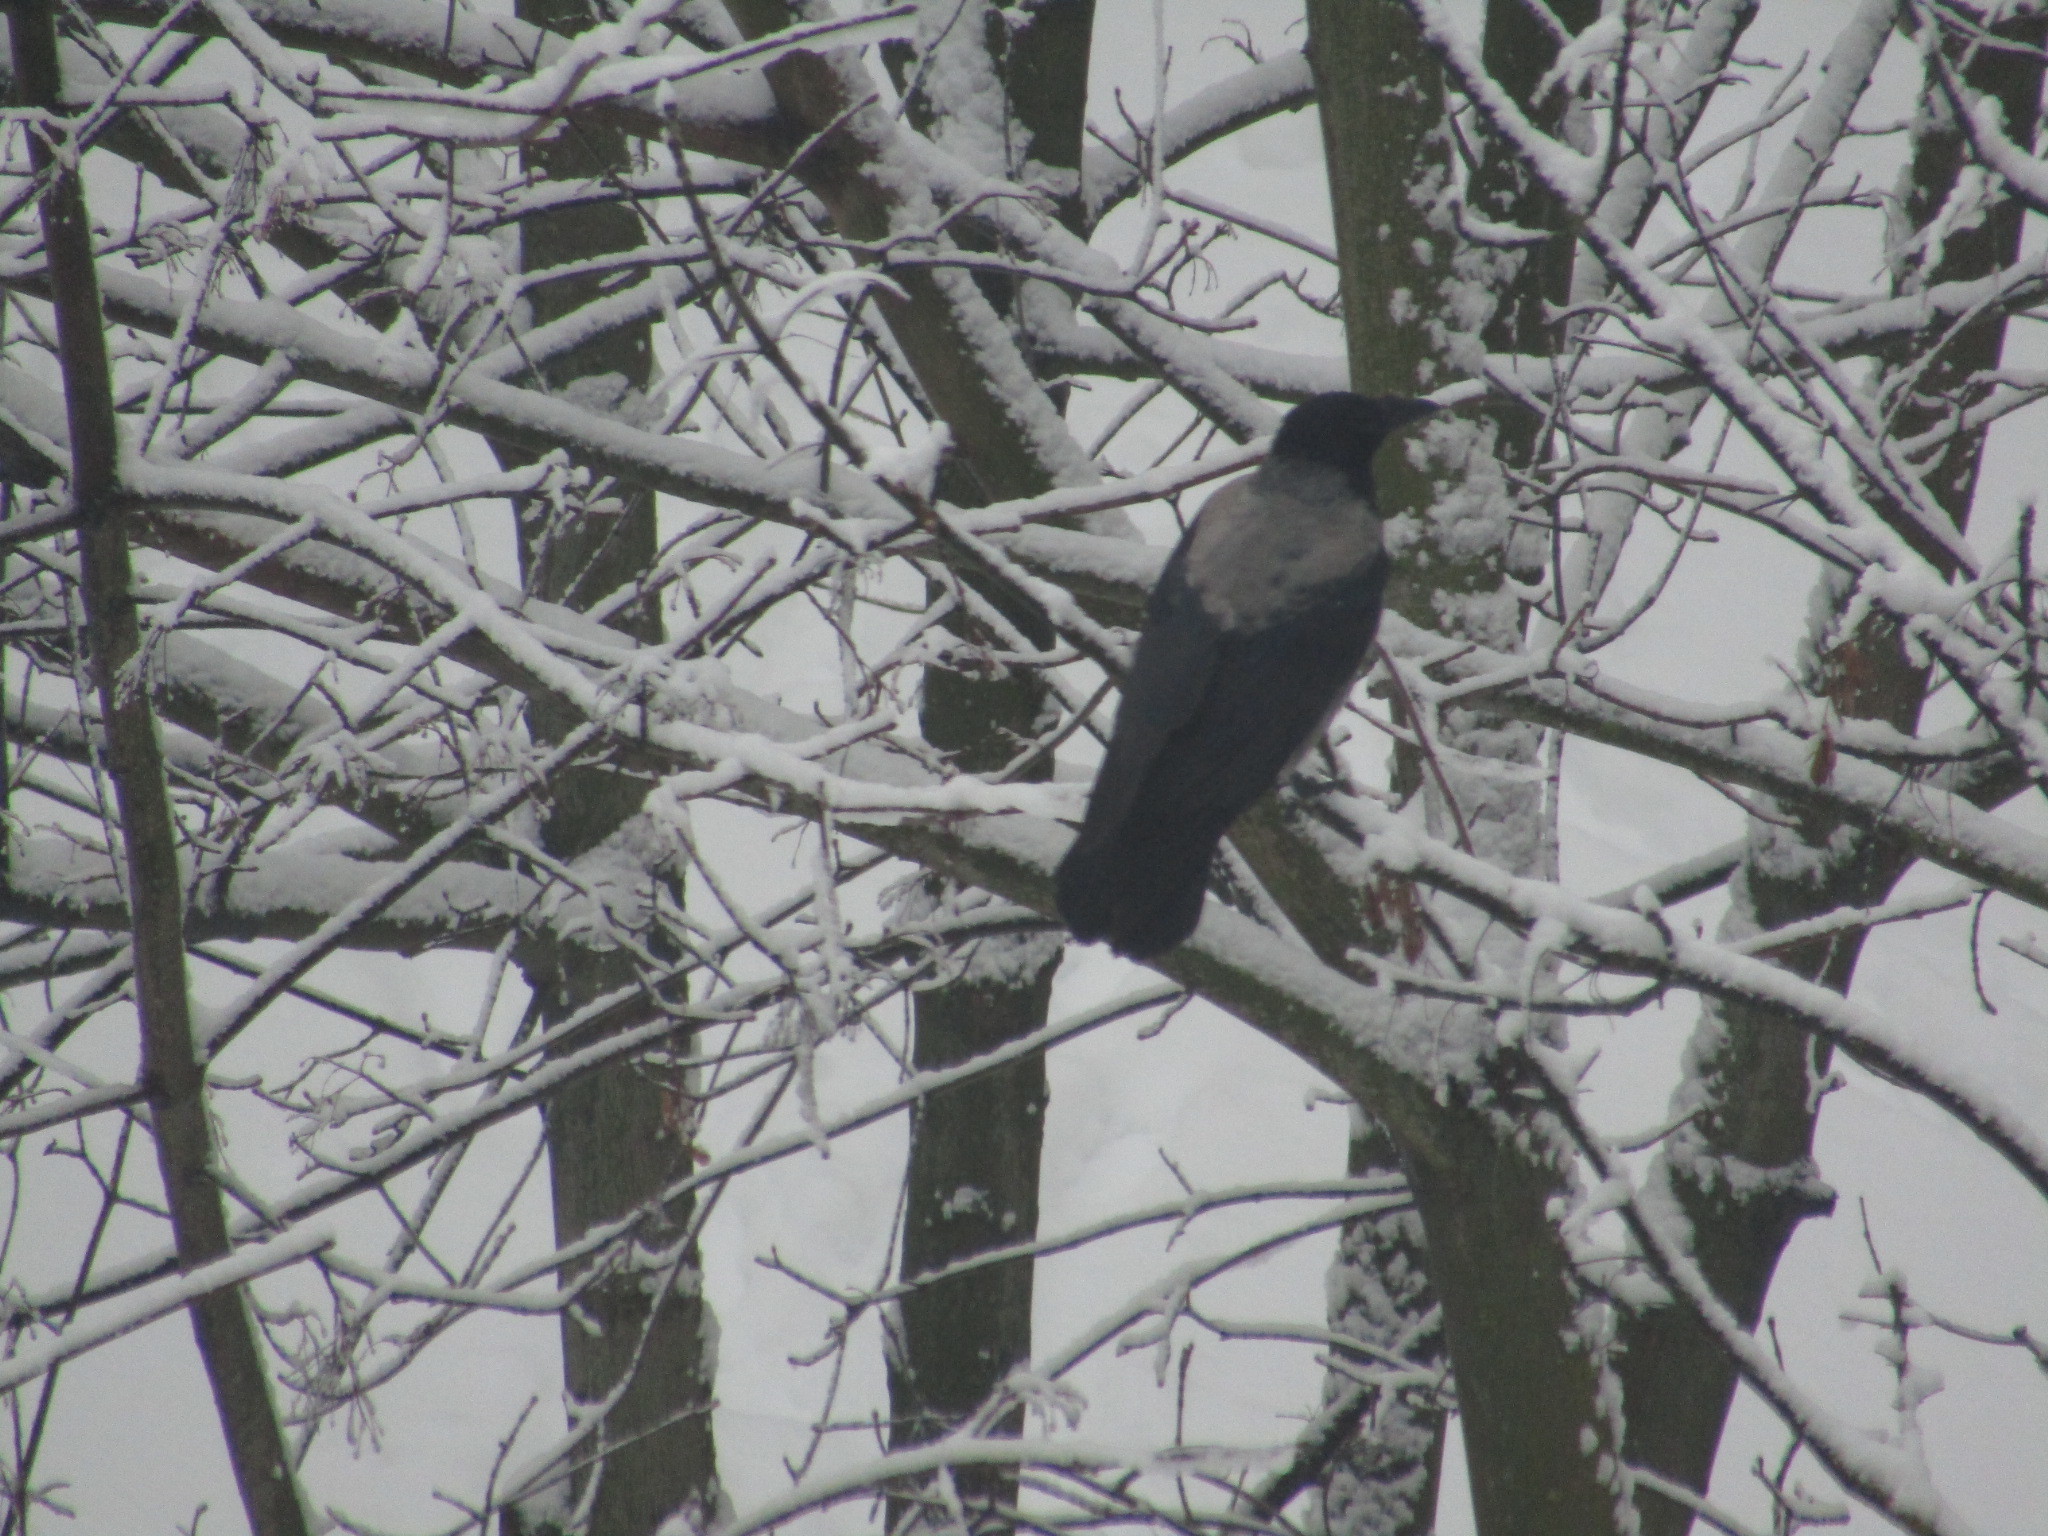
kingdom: Animalia
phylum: Chordata
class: Aves
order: Passeriformes
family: Corvidae
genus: Corvus
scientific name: Corvus cornix
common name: Hooded crow
